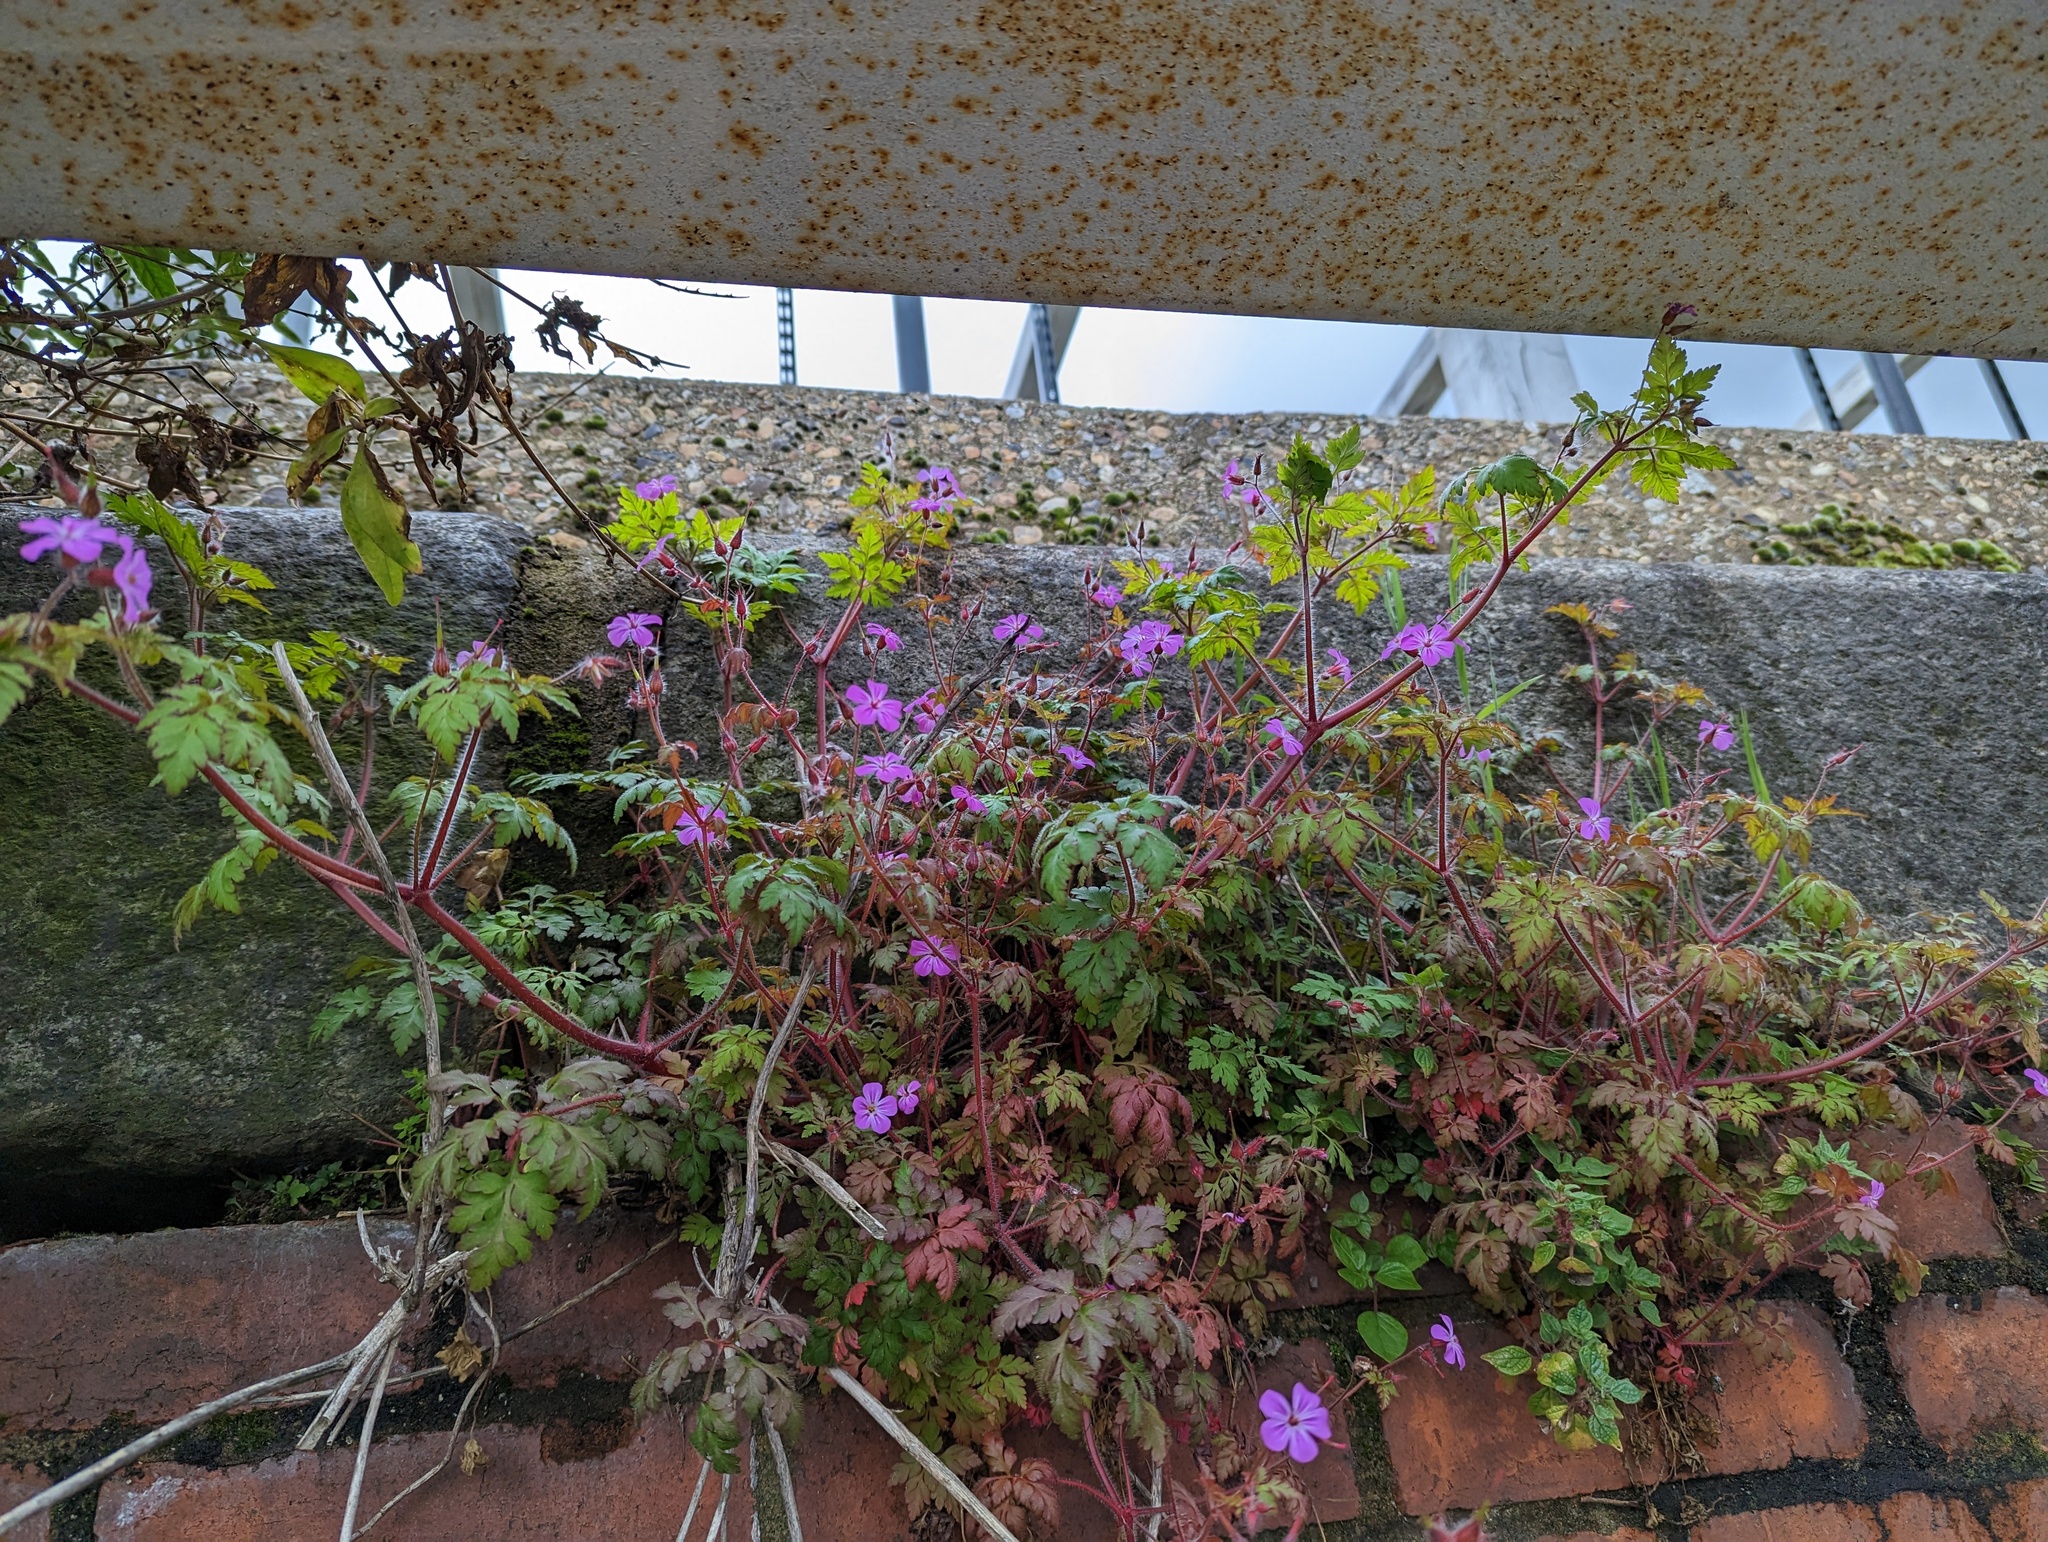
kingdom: Plantae
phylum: Tracheophyta
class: Magnoliopsida
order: Geraniales
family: Geraniaceae
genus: Geranium
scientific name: Geranium robertianum
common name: Herb-robert
